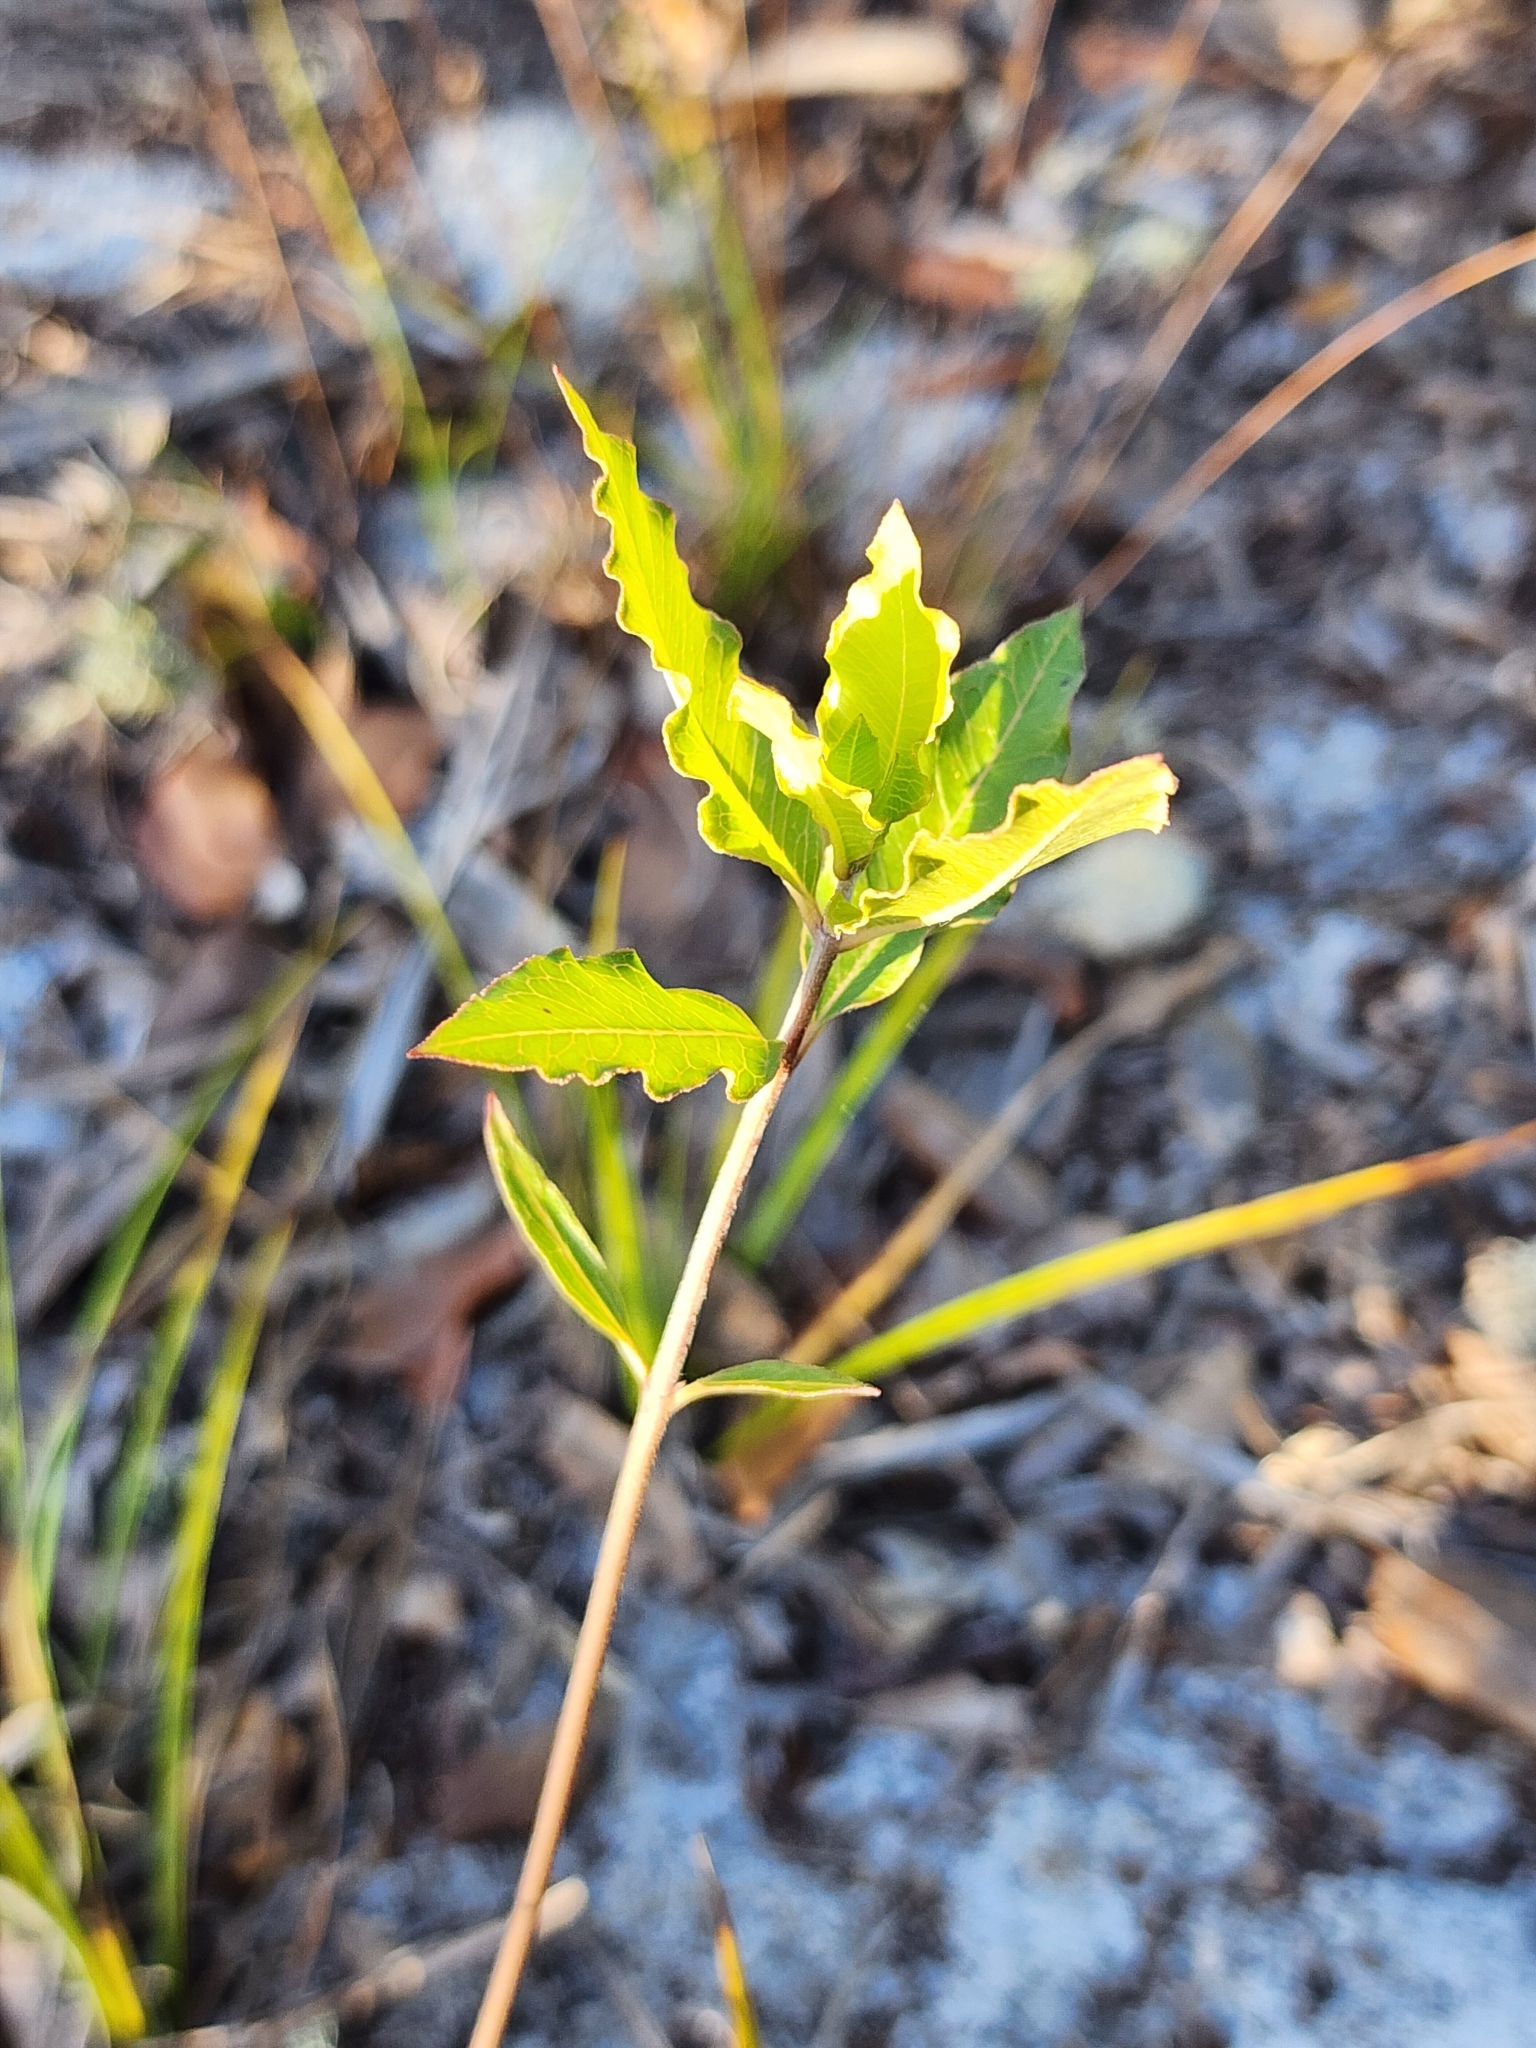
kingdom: Plantae
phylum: Tracheophyta
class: Magnoliopsida
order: Gentianales
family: Apocynaceae
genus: Asclepias
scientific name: Asclepias curtissii
